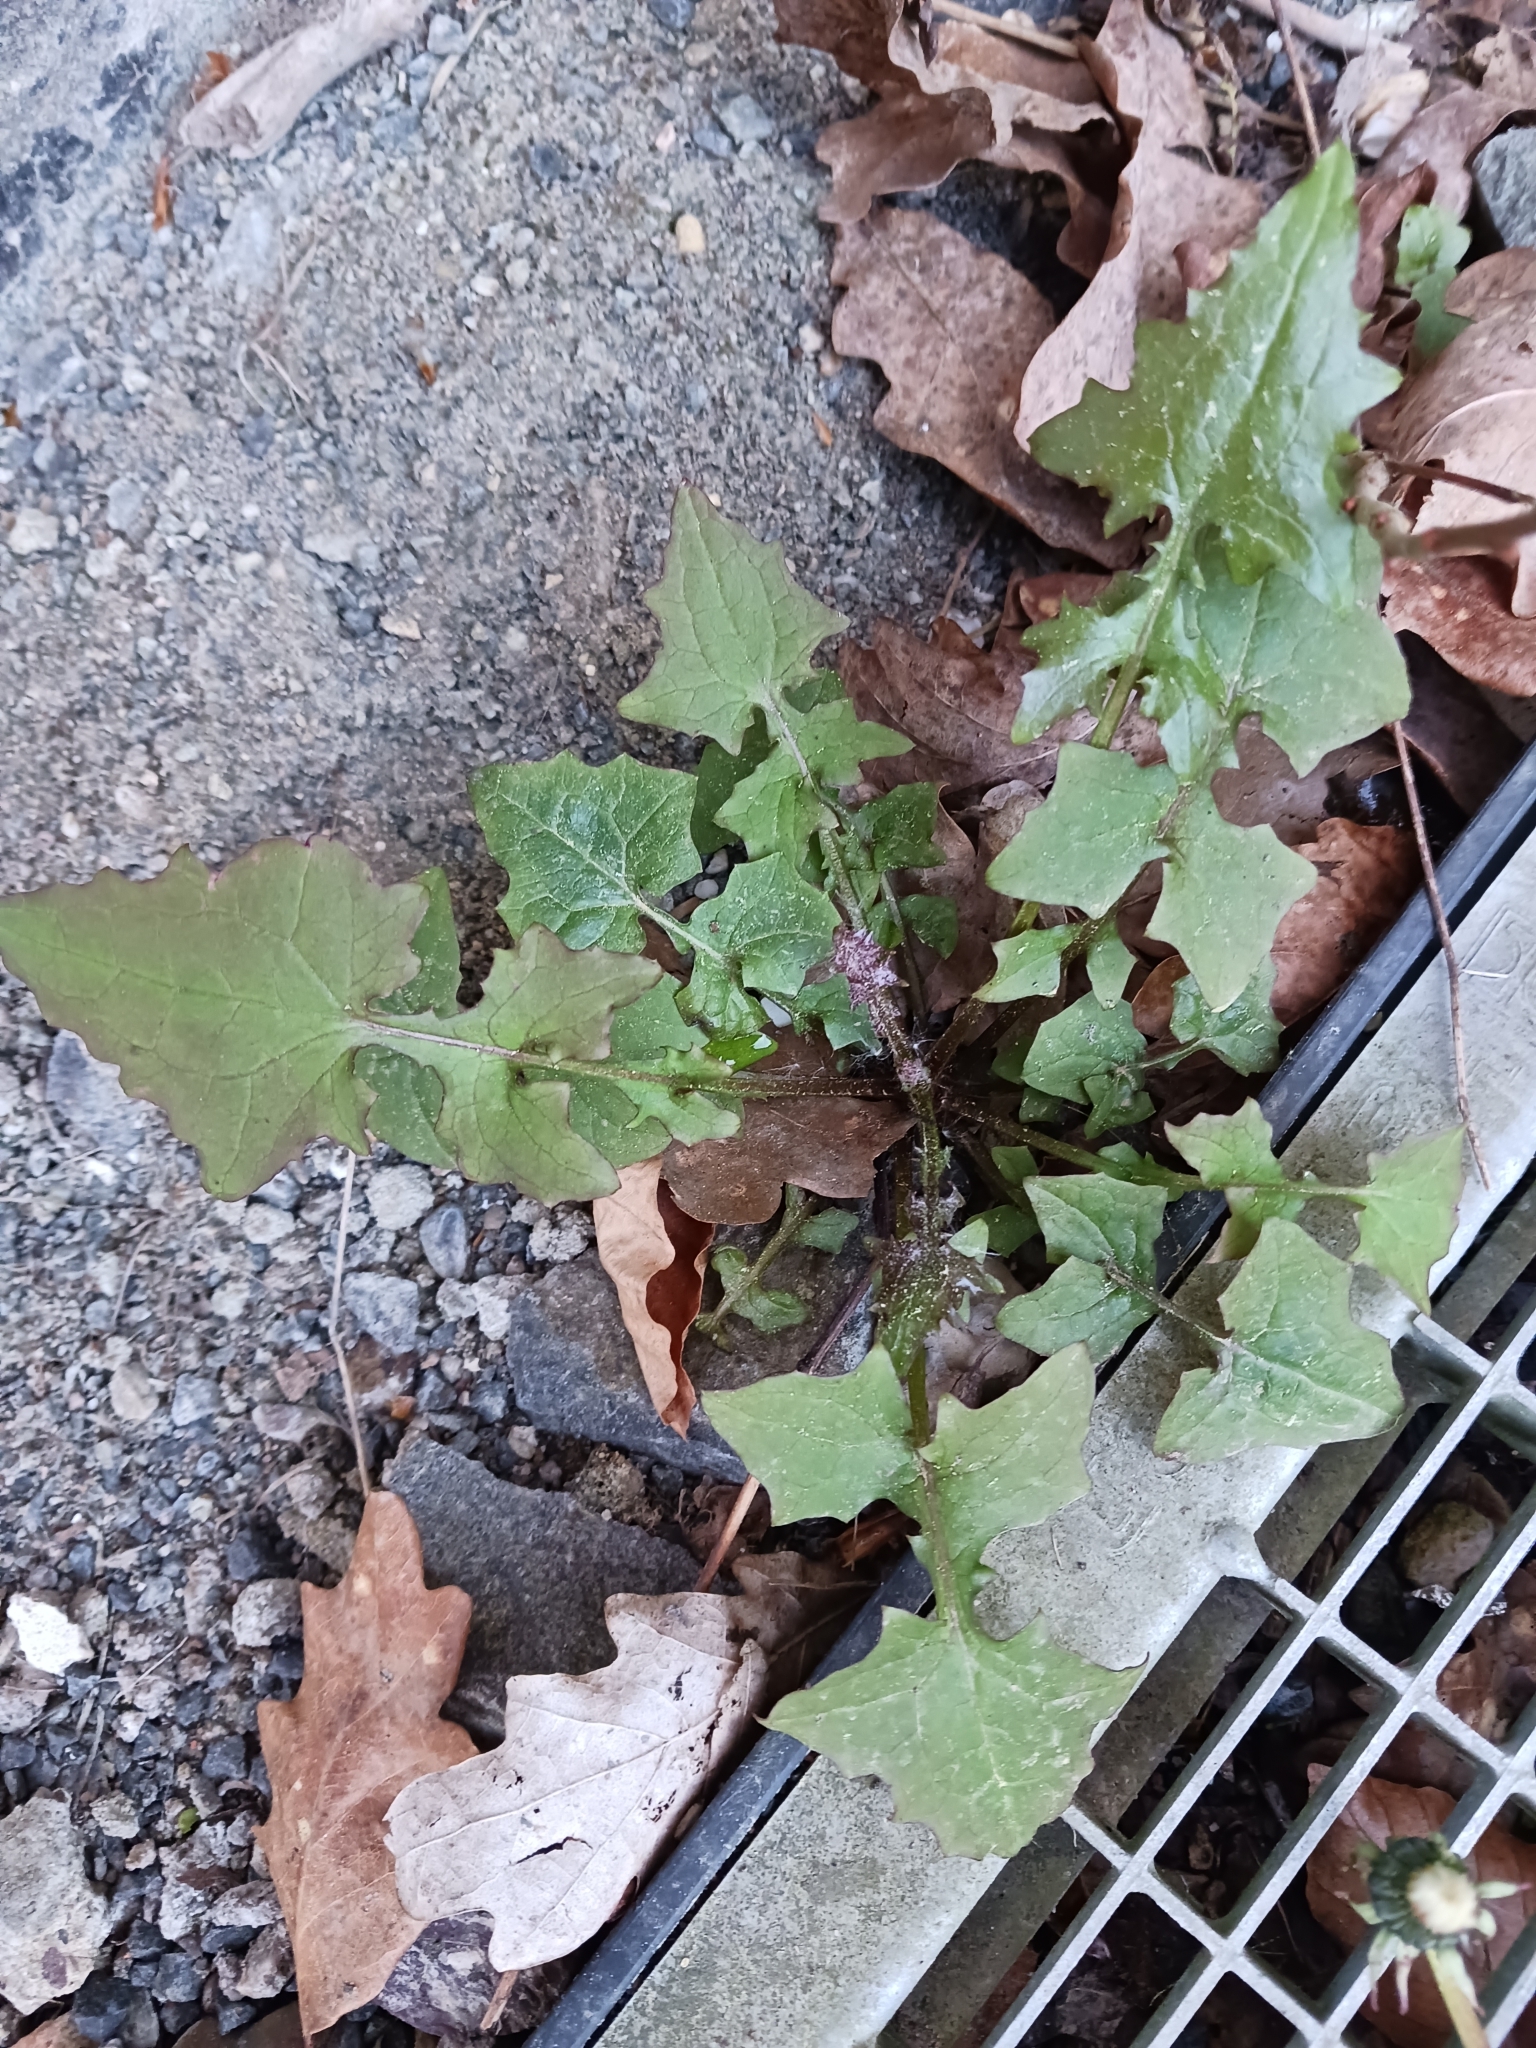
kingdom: Plantae
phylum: Tracheophyta
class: Magnoliopsida
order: Asterales
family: Asteraceae
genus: Mycelis
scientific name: Mycelis muralis
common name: Wall lettuce
